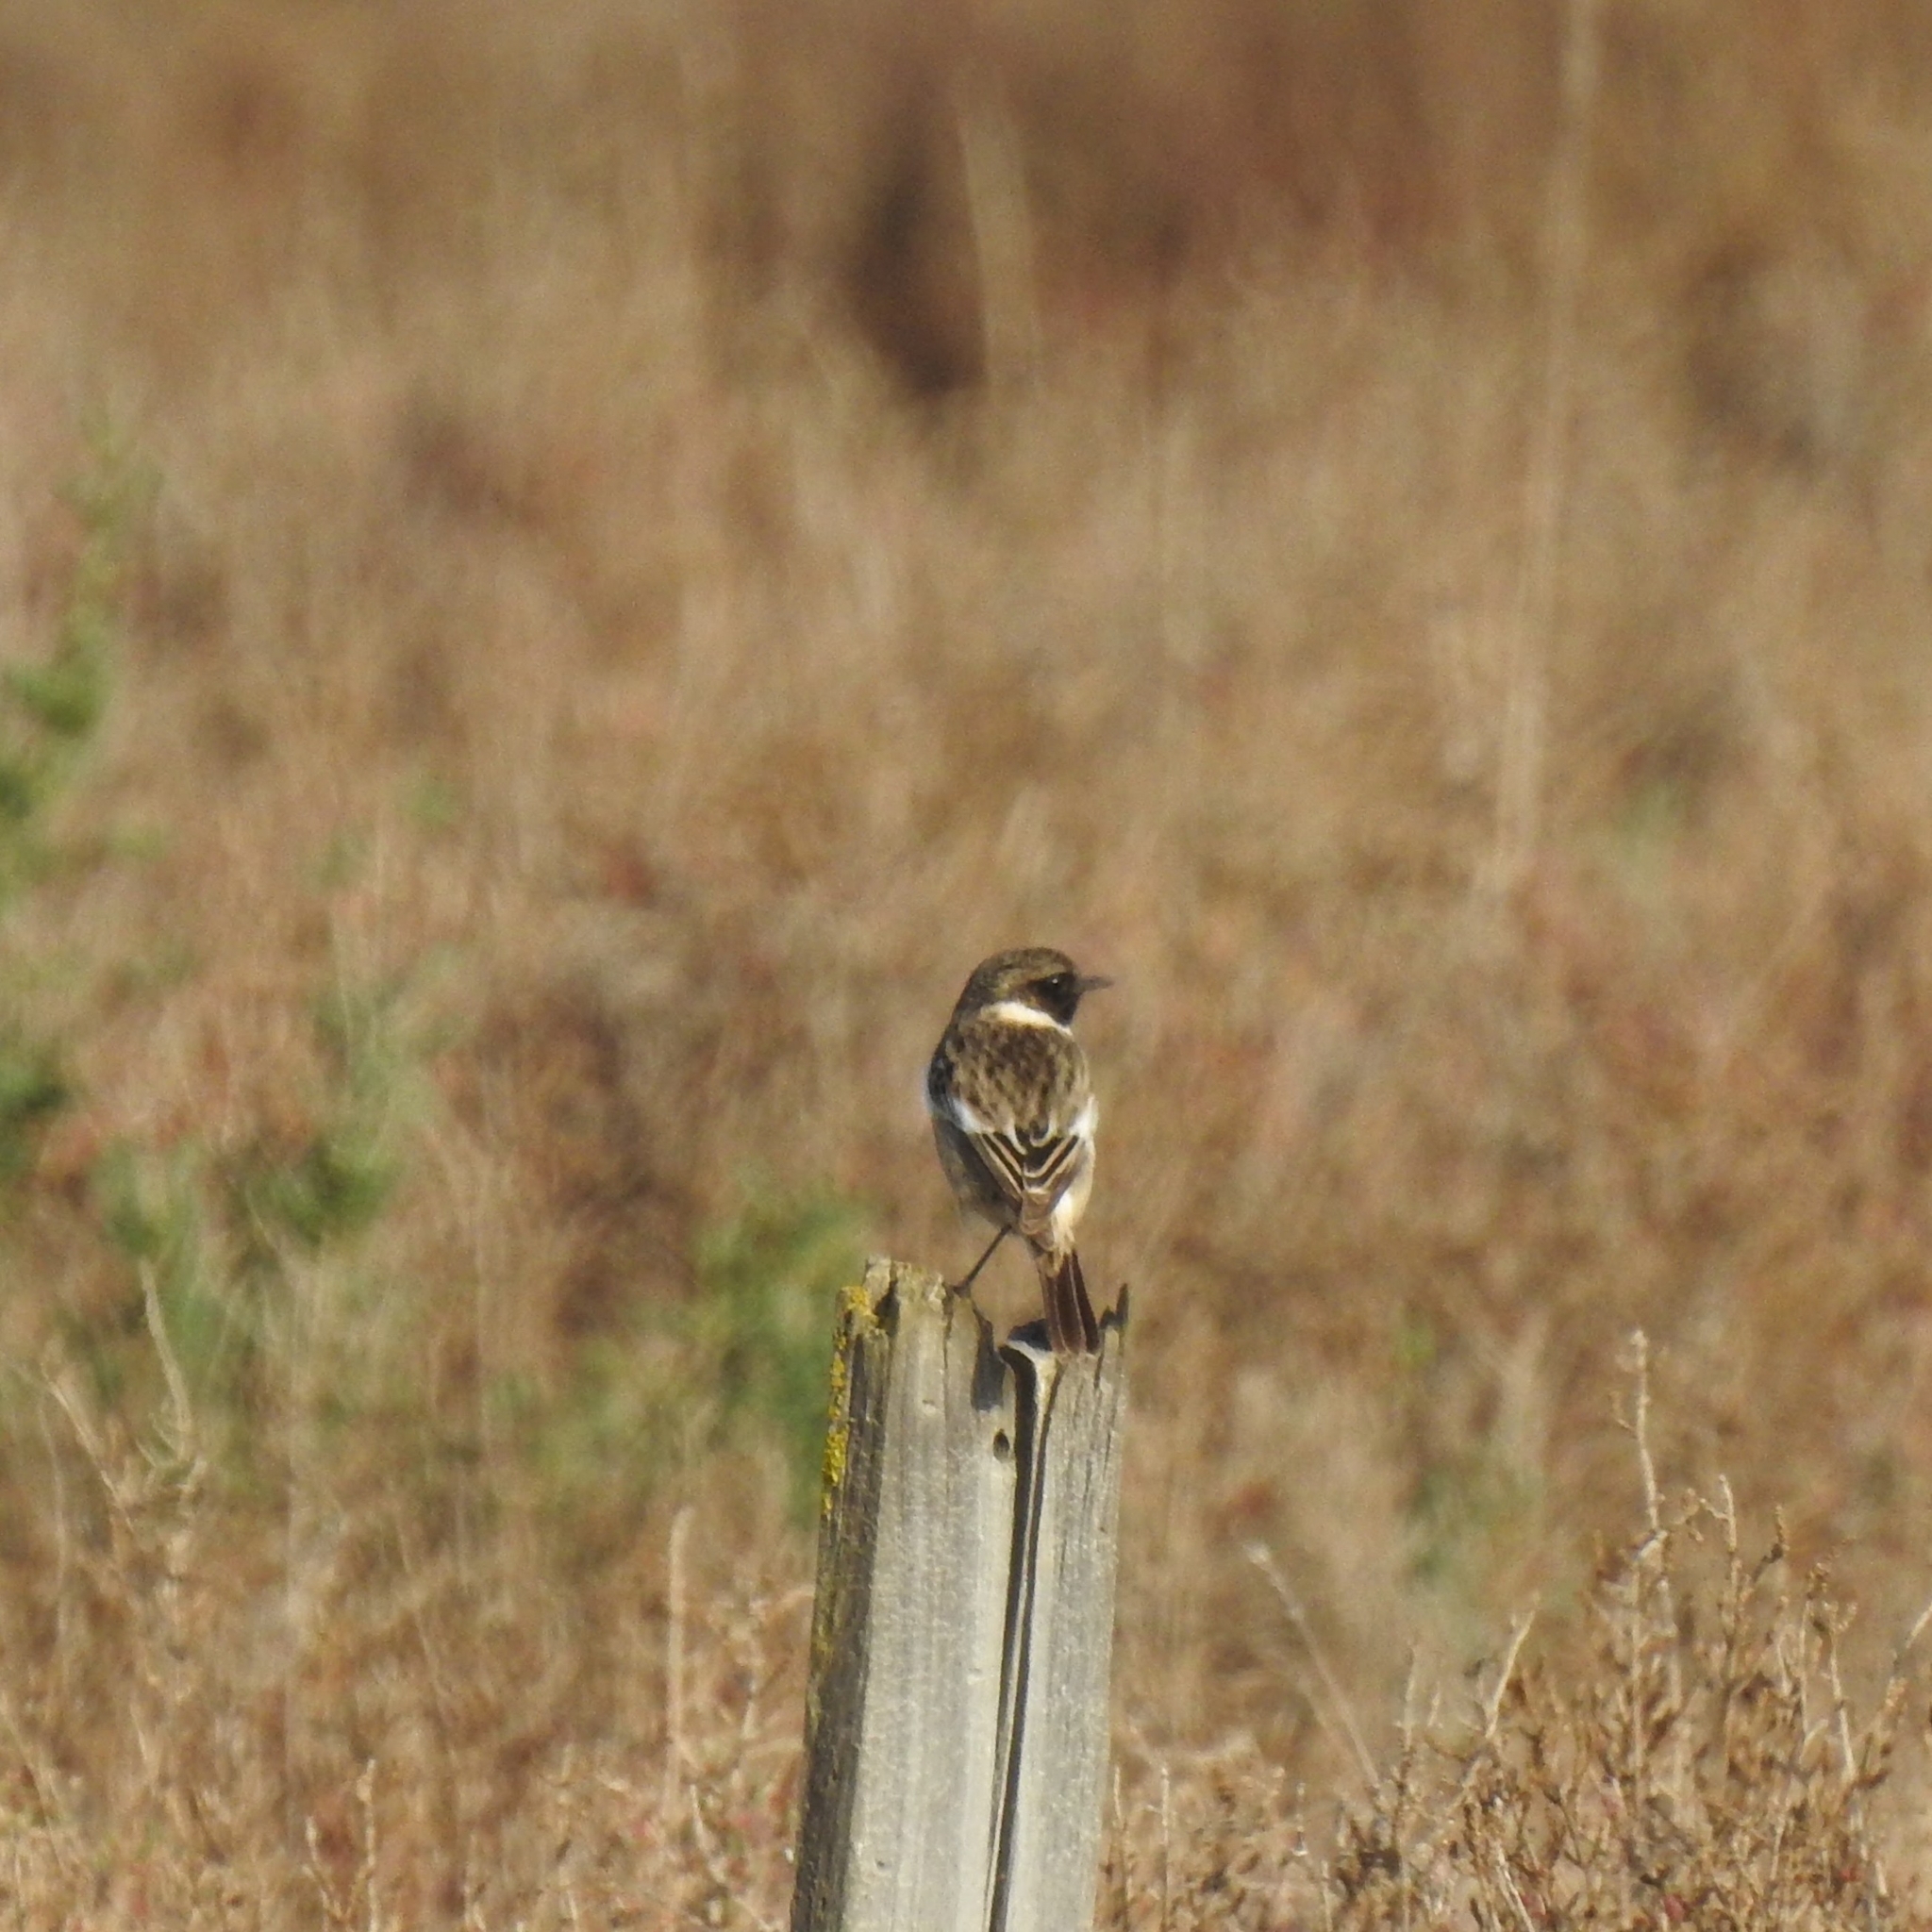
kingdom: Animalia
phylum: Chordata
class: Aves
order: Passeriformes
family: Muscicapidae
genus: Saxicola
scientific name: Saxicola rubicola
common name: European stonechat
